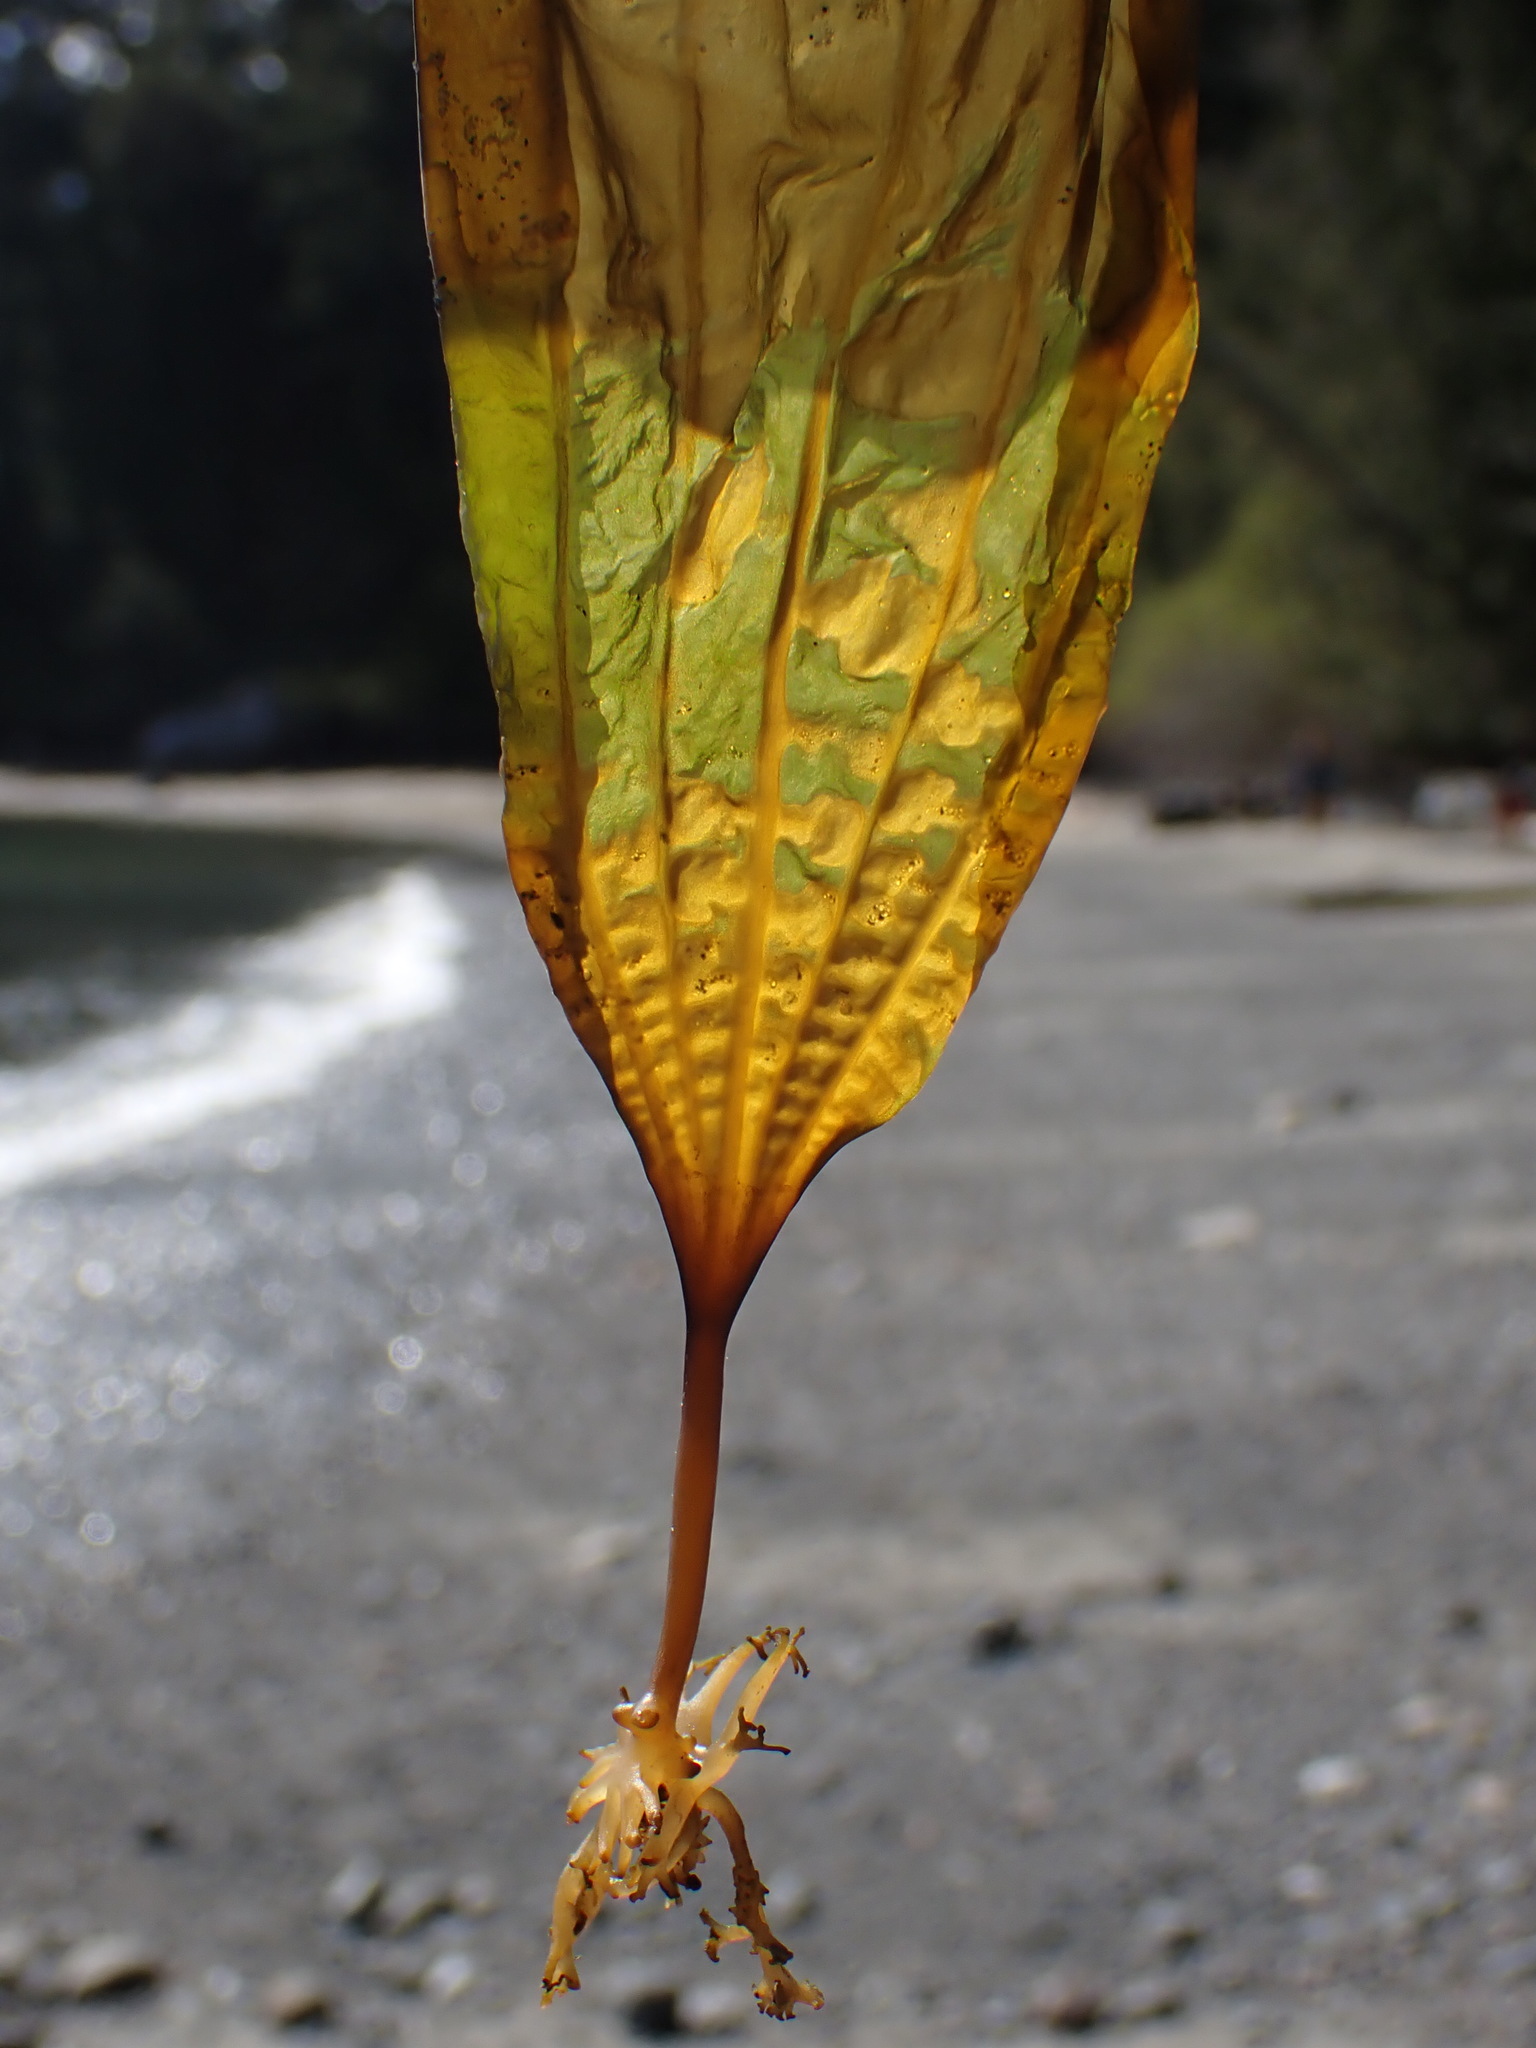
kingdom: Chromista
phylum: Ochrophyta
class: Phaeophyceae
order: Laminariales
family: Costariaceae
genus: Costaria
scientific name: Costaria costata
